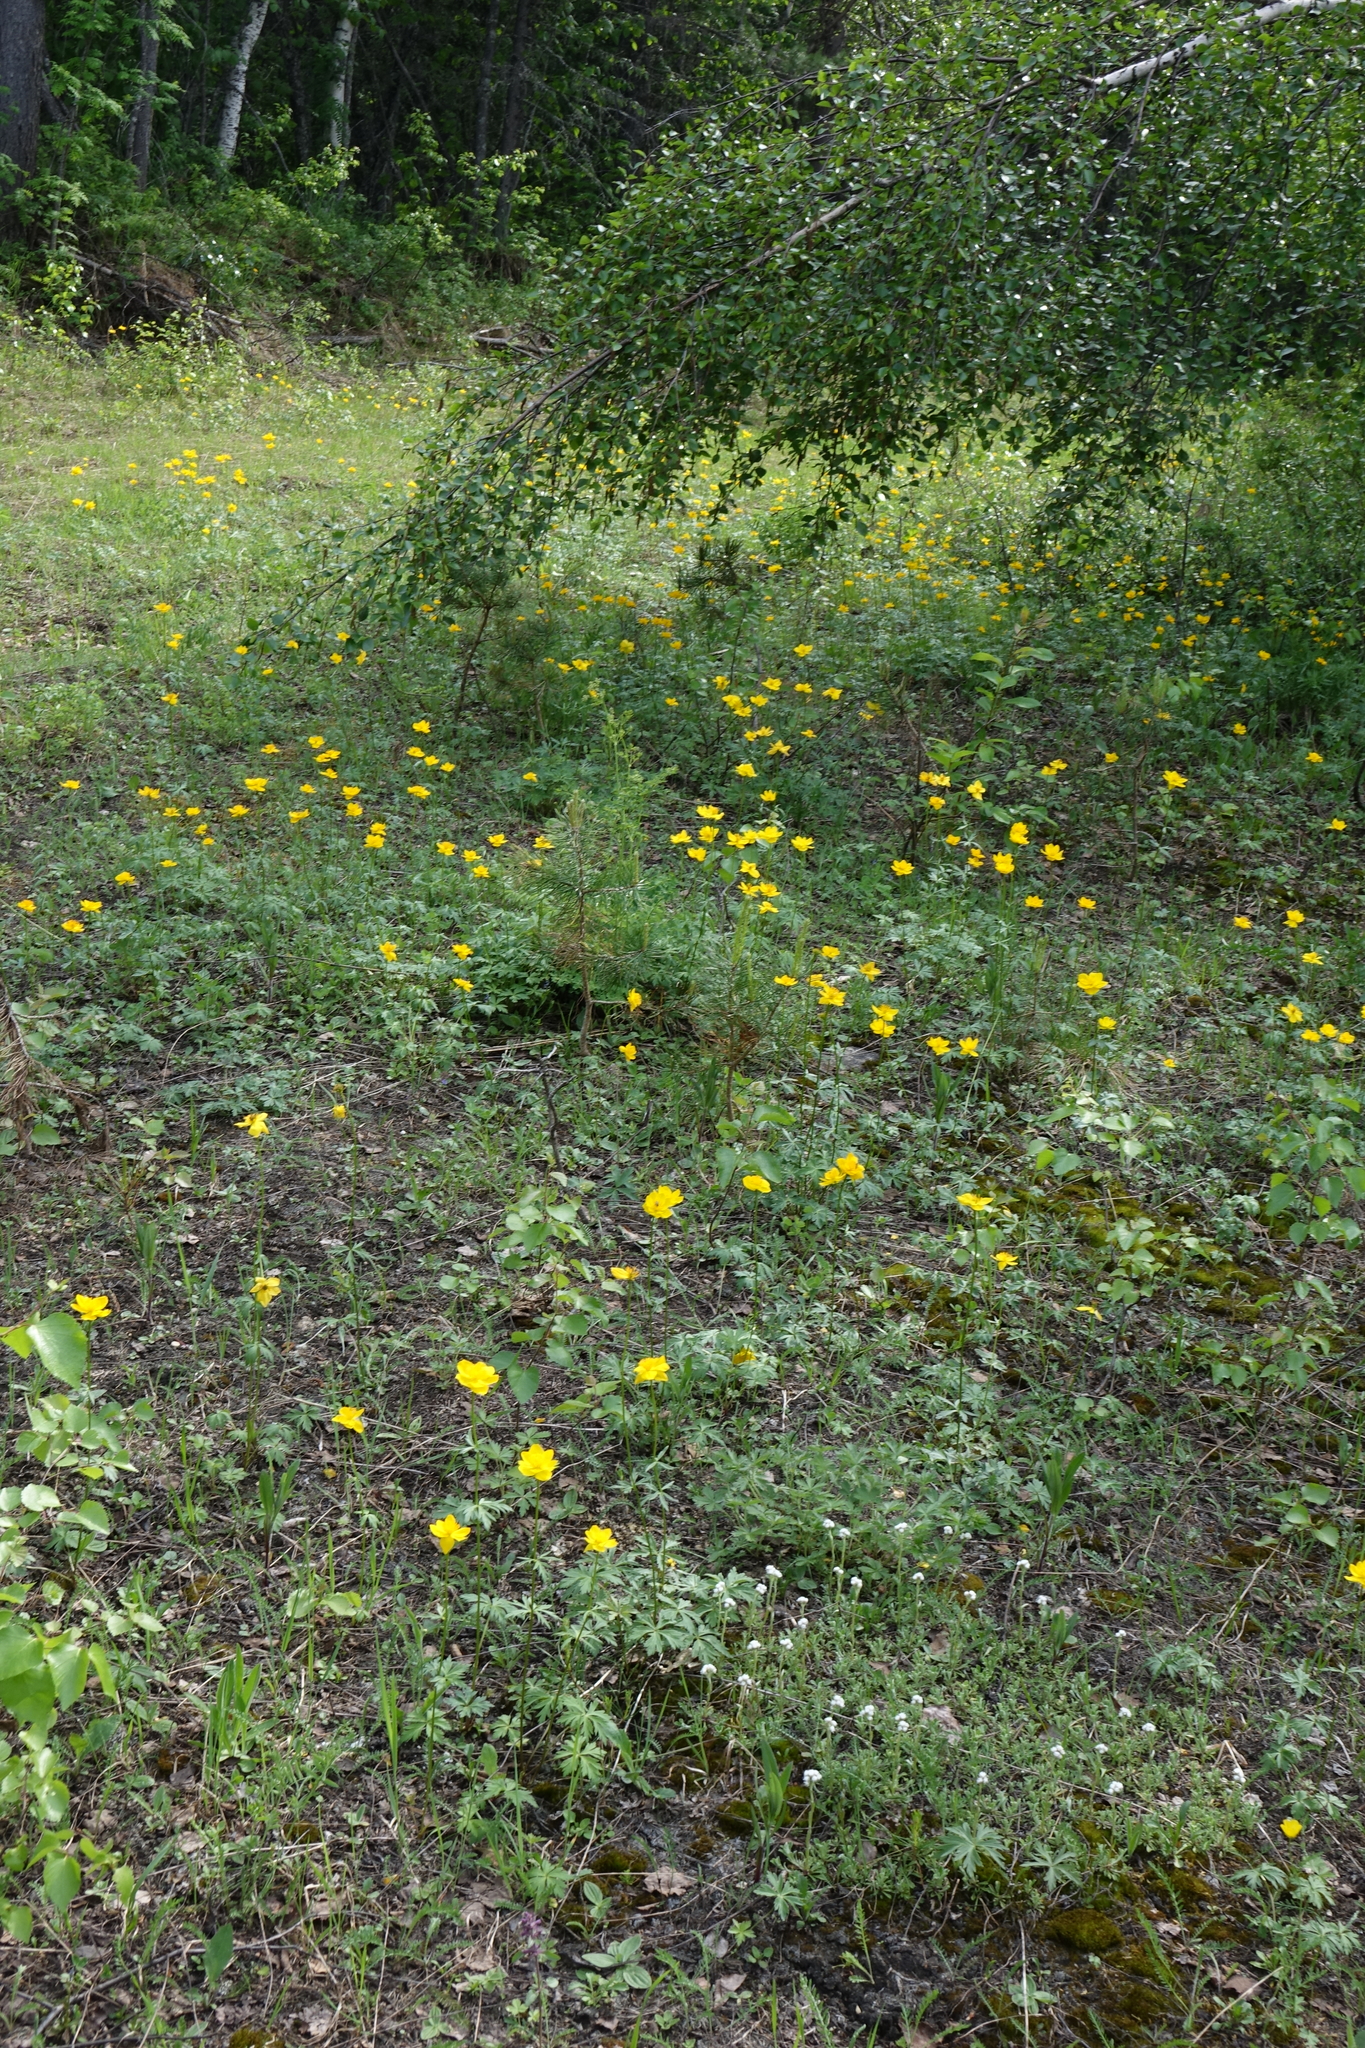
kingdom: Plantae
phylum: Tracheophyta
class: Magnoliopsida
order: Ranunculales
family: Ranunculaceae
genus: Trollius
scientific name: Trollius membranostylis
